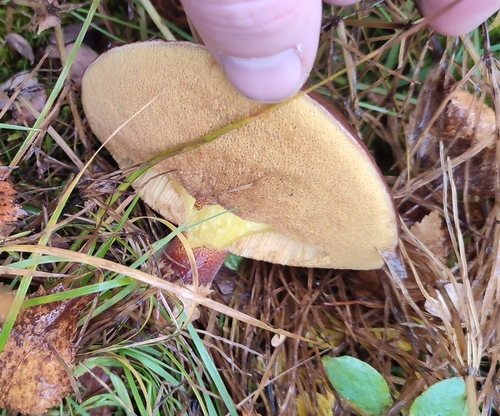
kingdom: Fungi
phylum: Basidiomycota
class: Agaricomycetes
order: Boletales
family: Suillaceae
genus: Suillus
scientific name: Suillus
